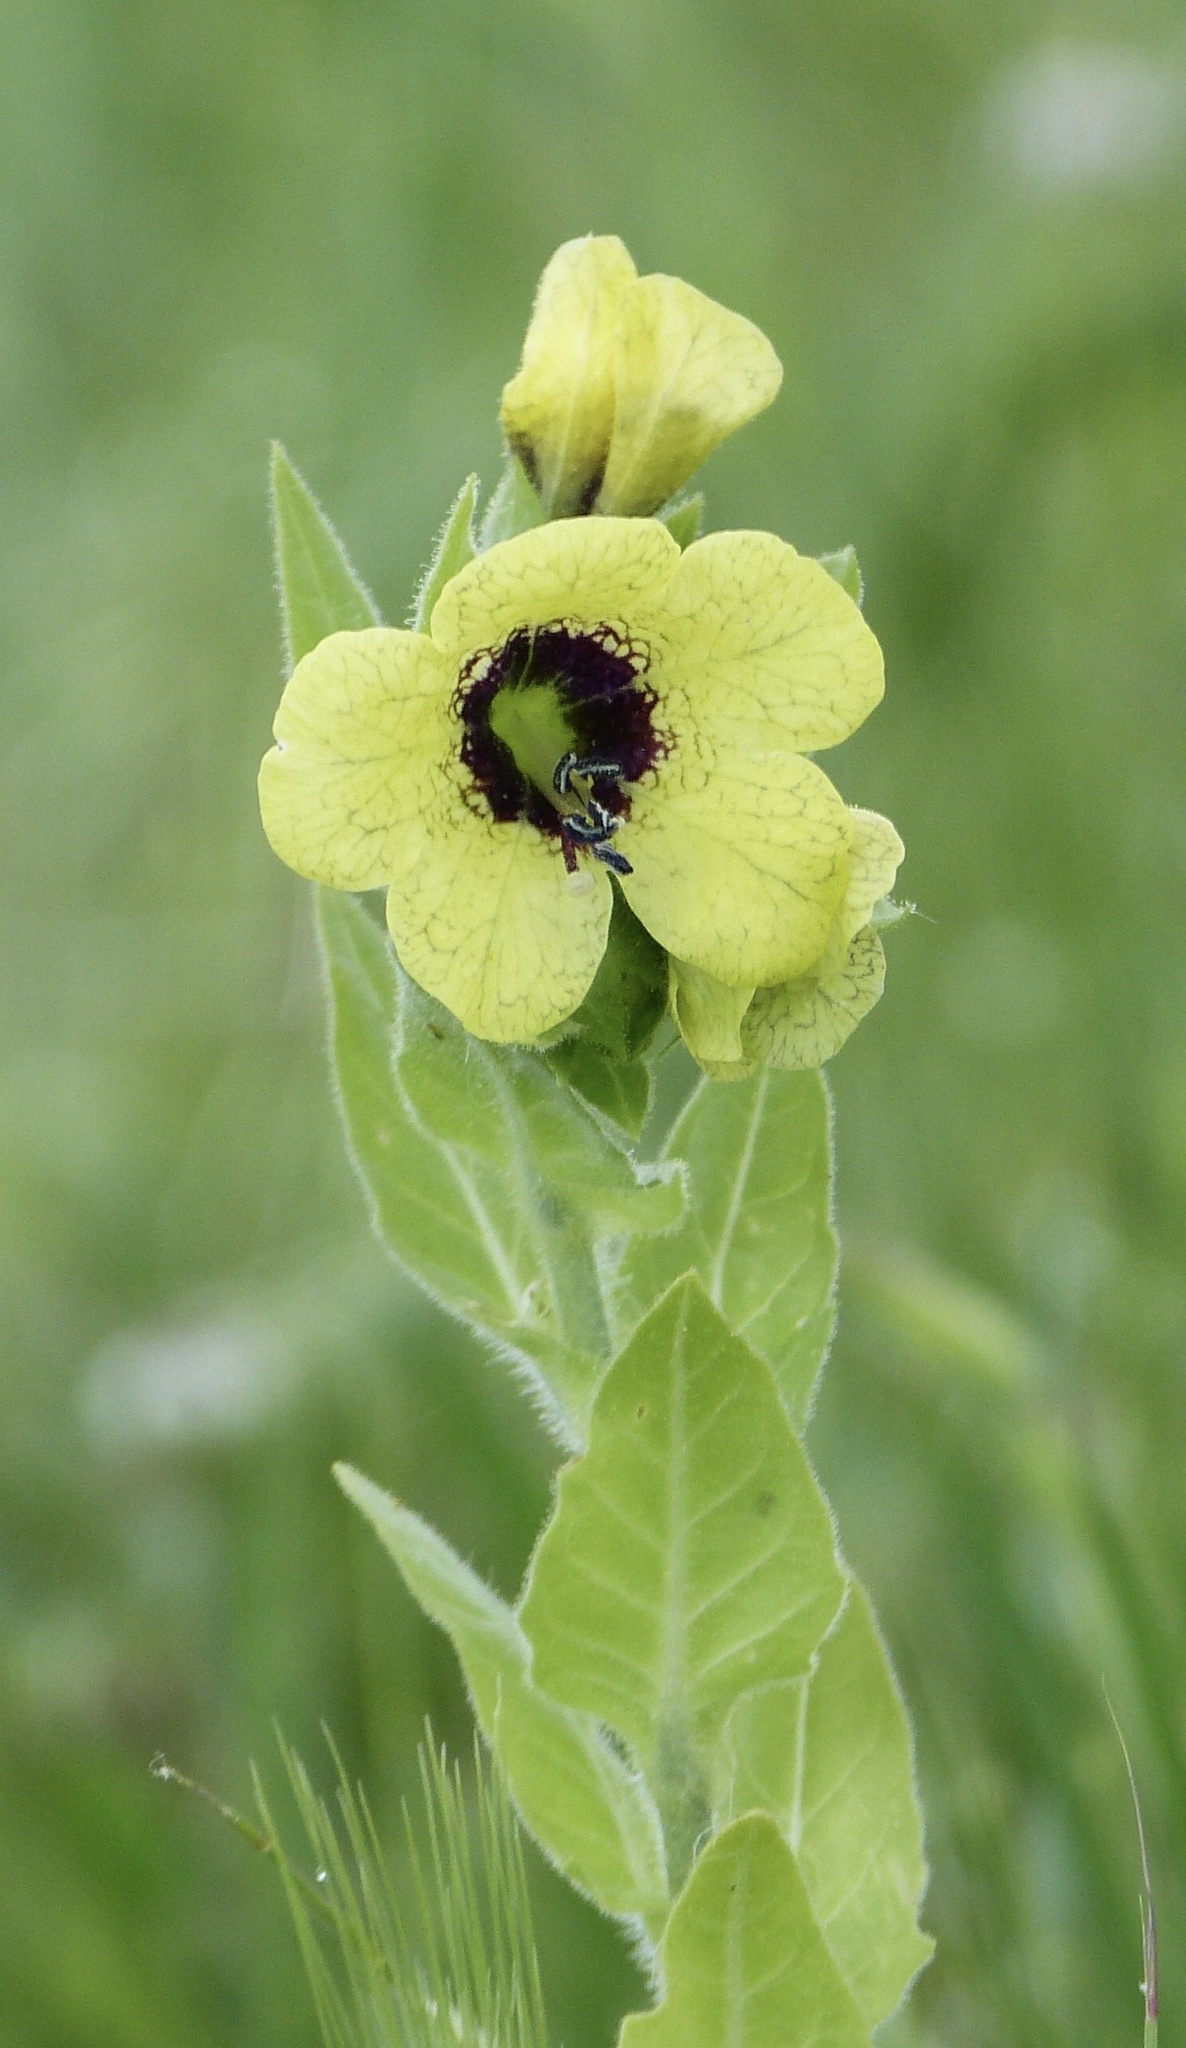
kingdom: Plantae
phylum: Tracheophyta
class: Magnoliopsida
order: Solanales
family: Solanaceae
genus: Hyoscyamus
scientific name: Hyoscyamus niger
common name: Henbane
